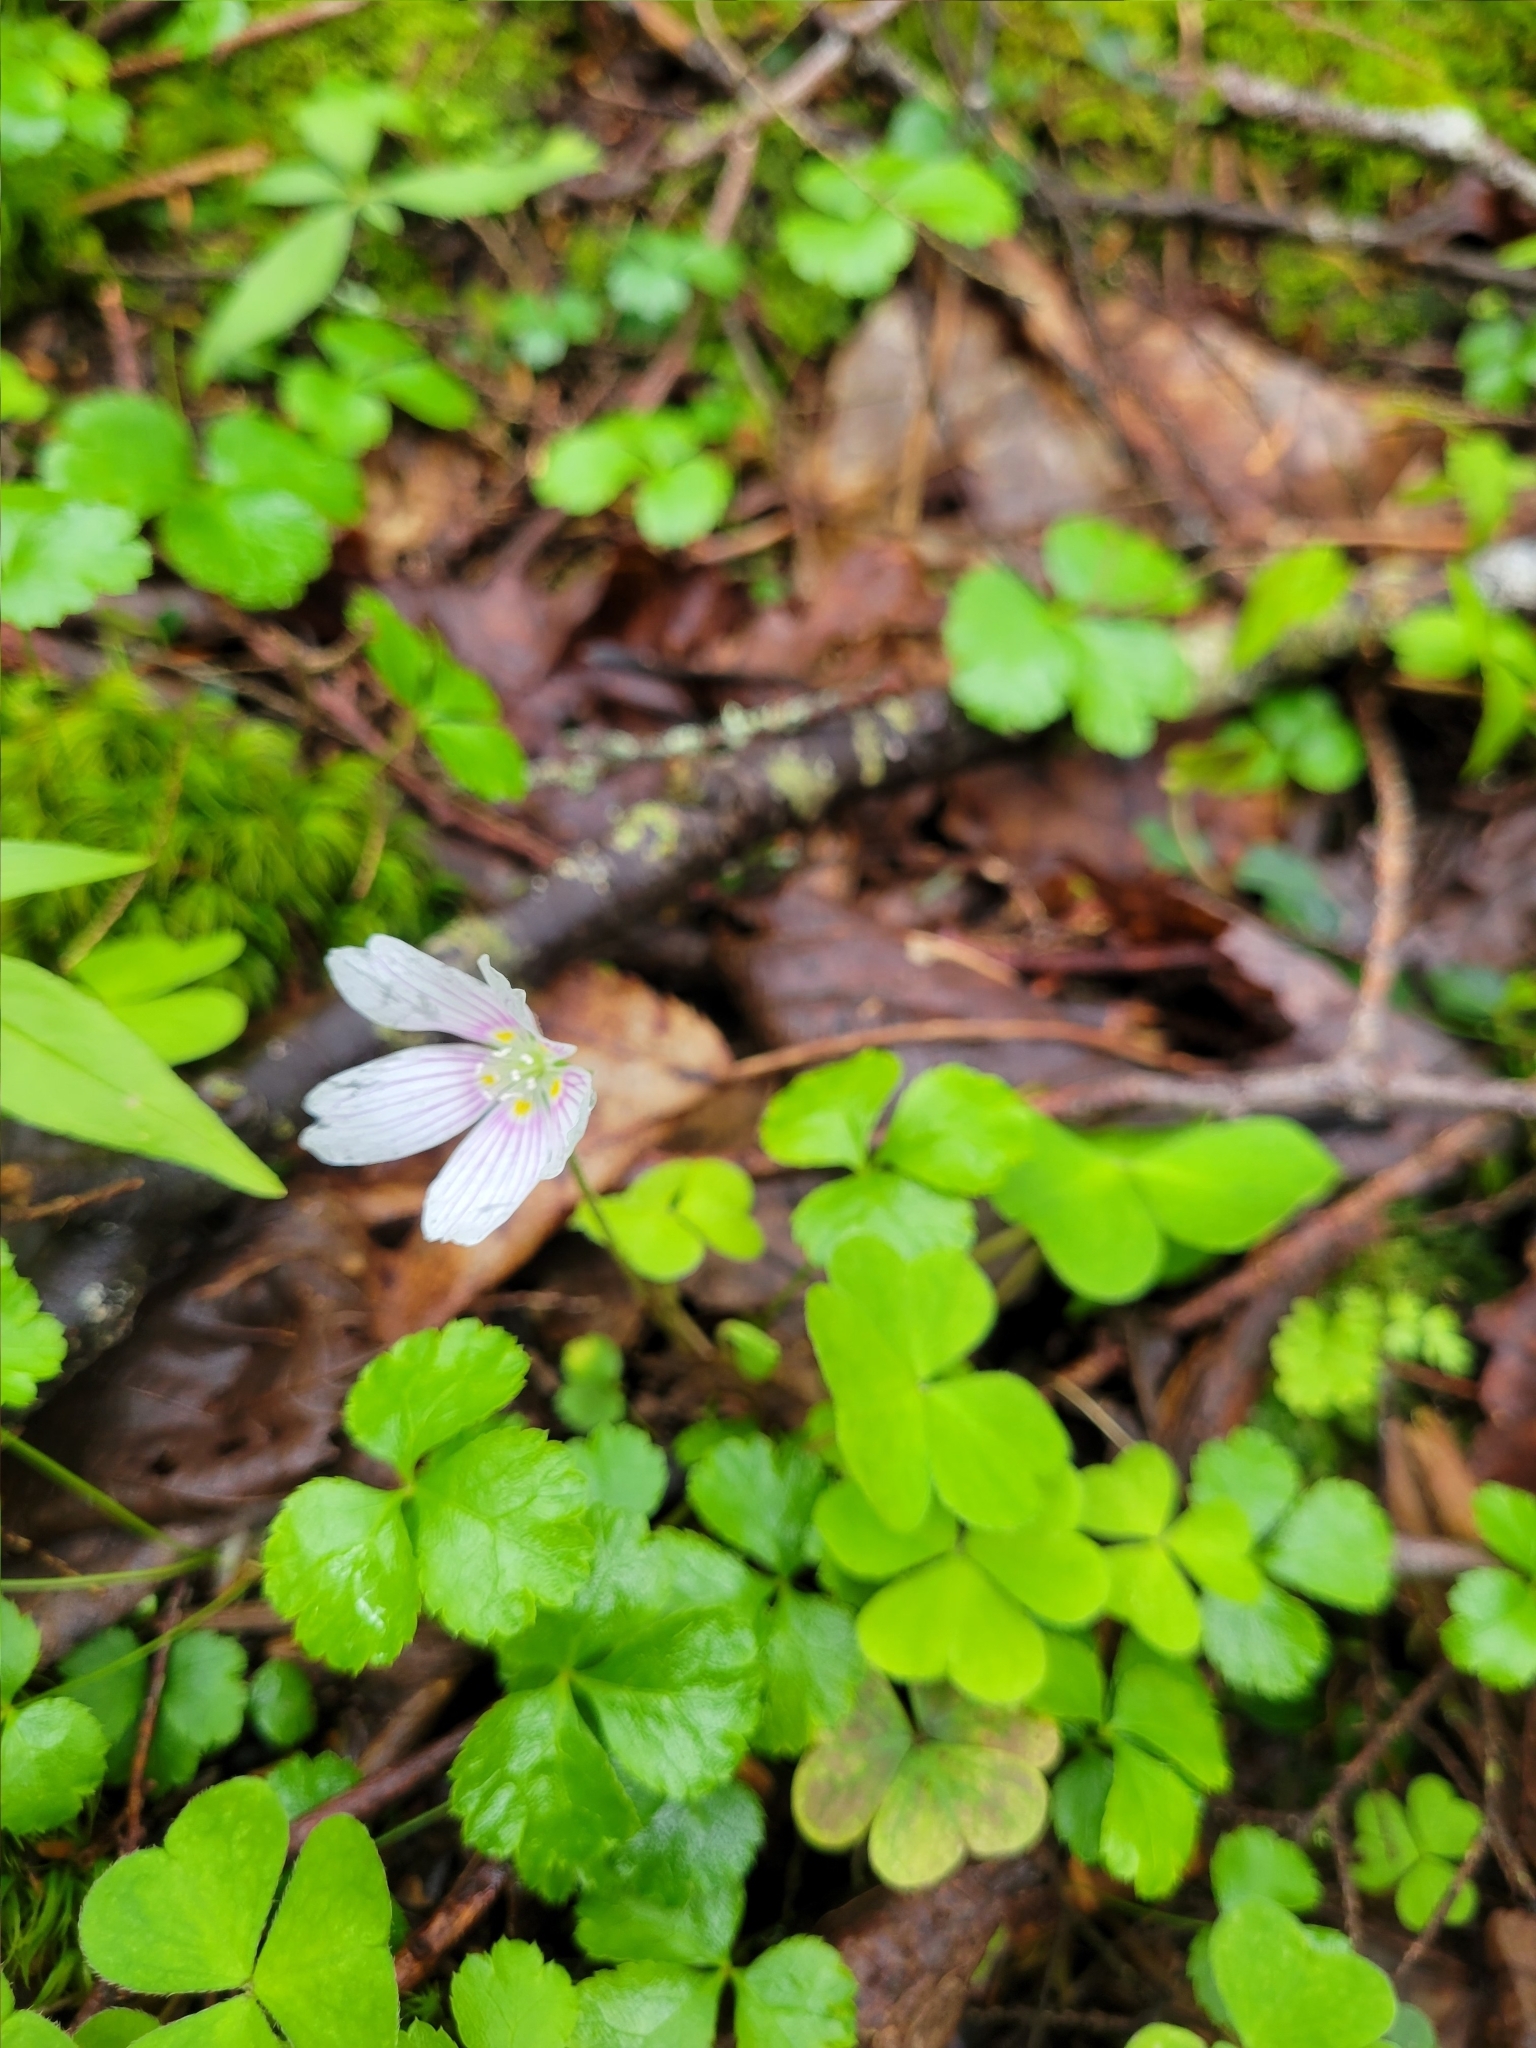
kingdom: Plantae
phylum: Tracheophyta
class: Magnoliopsida
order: Oxalidales
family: Oxalidaceae
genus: Oxalis
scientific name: Oxalis montana
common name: American wood-sorrel
